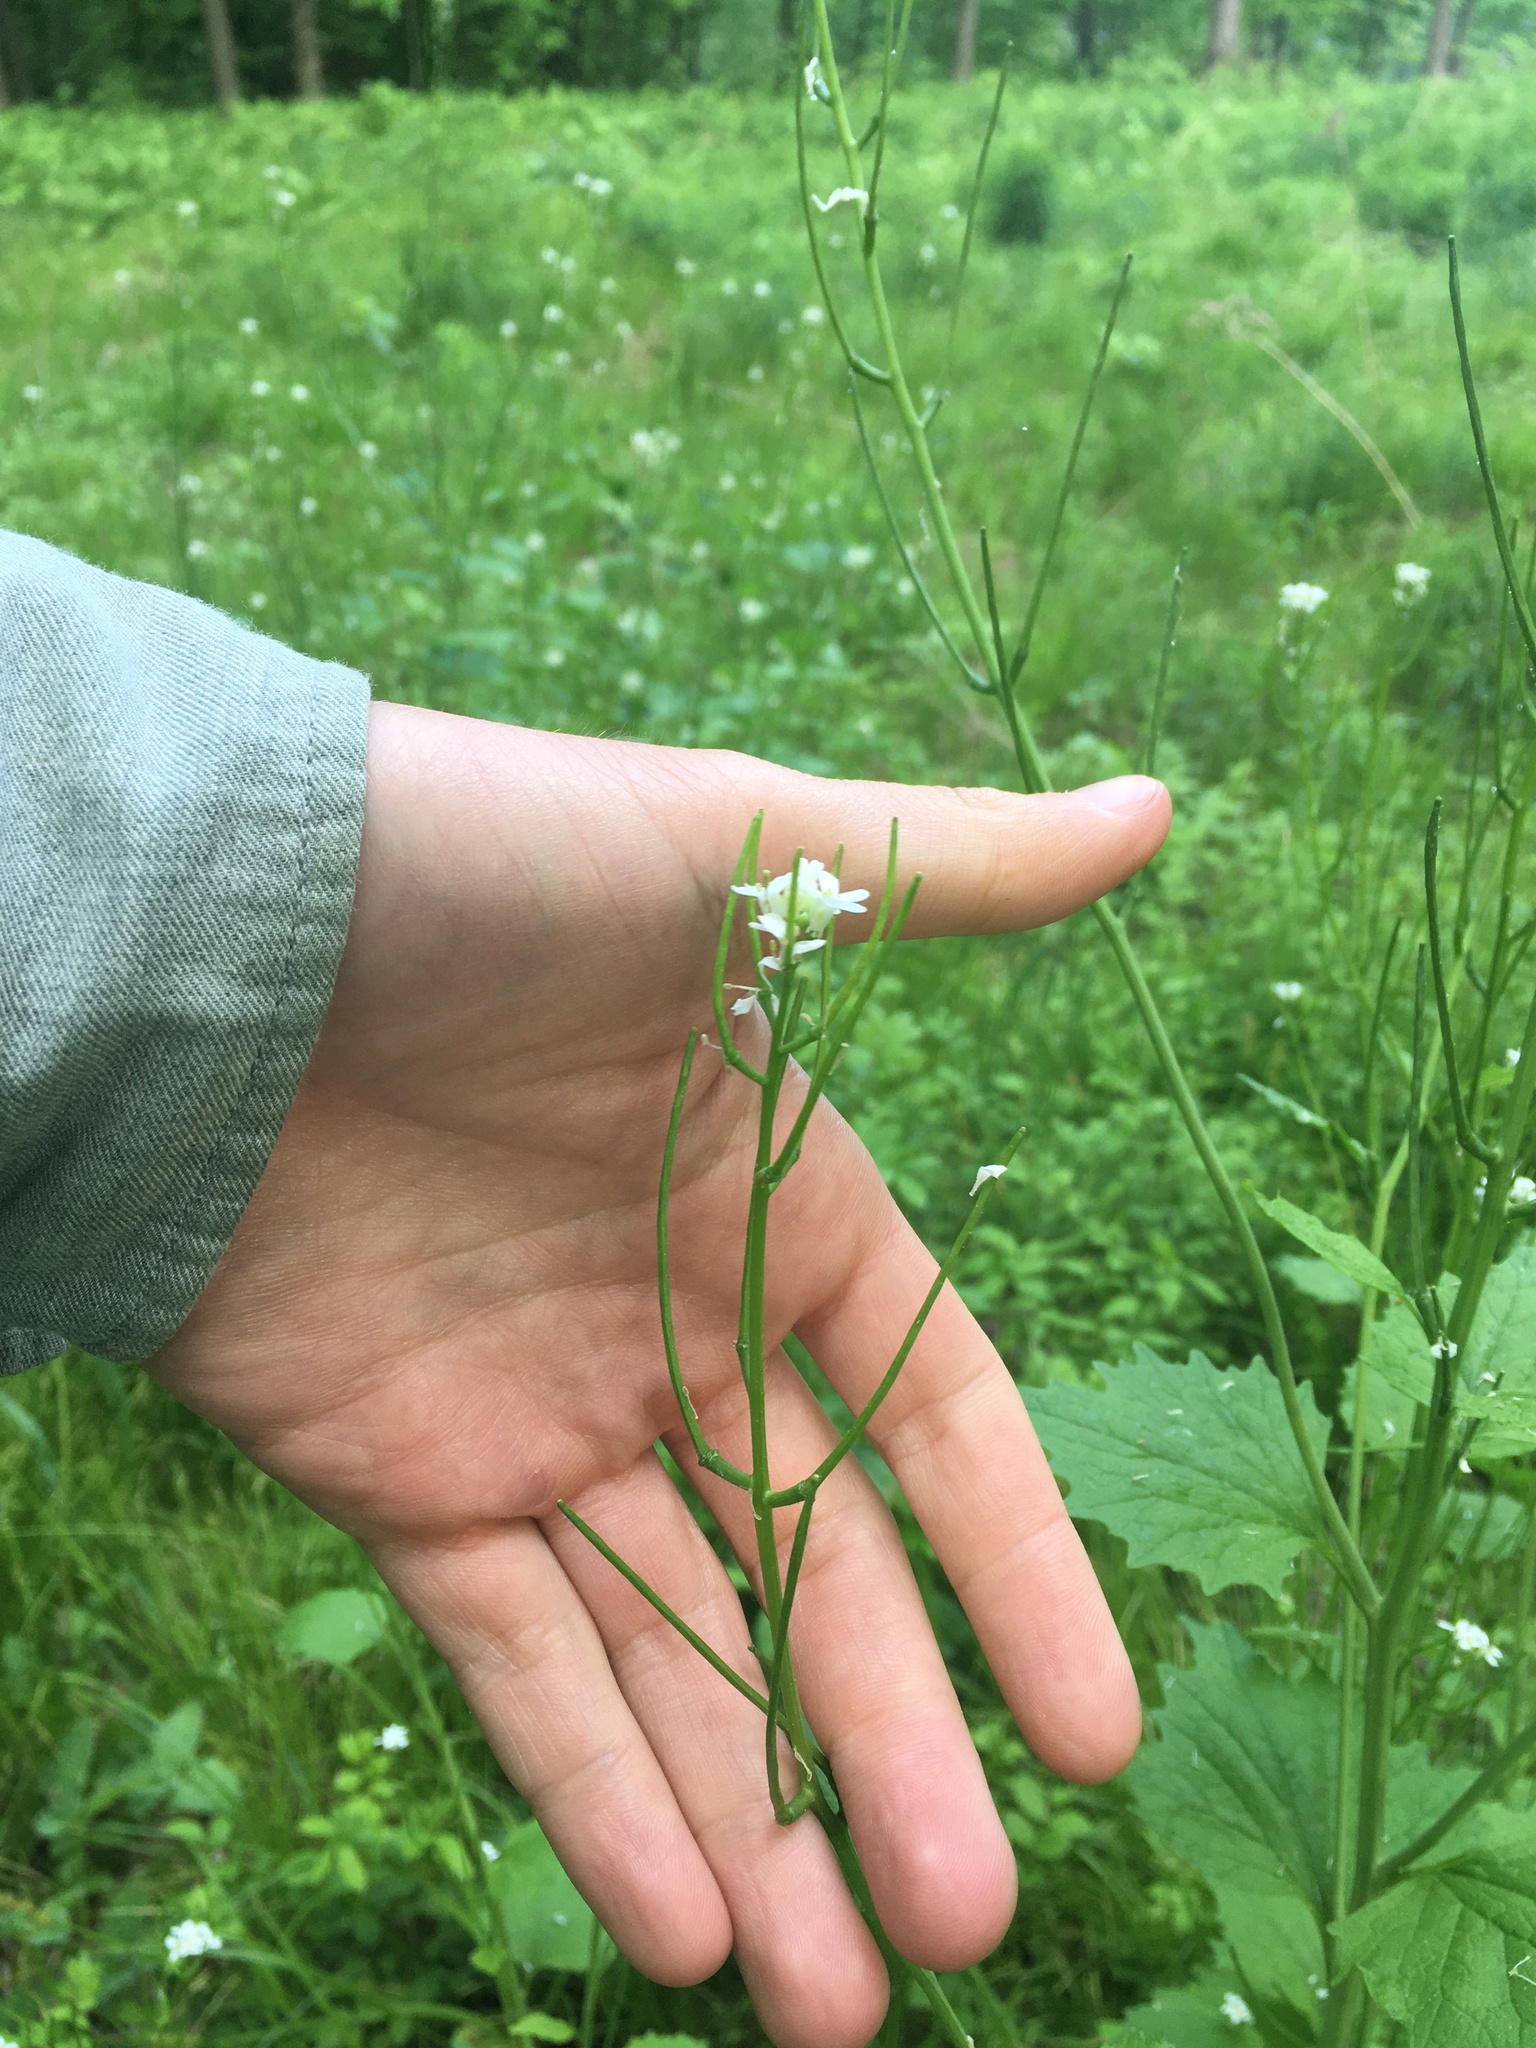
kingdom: Plantae
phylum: Tracheophyta
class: Magnoliopsida
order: Brassicales
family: Brassicaceae
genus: Alliaria
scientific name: Alliaria petiolata
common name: Garlic mustard
